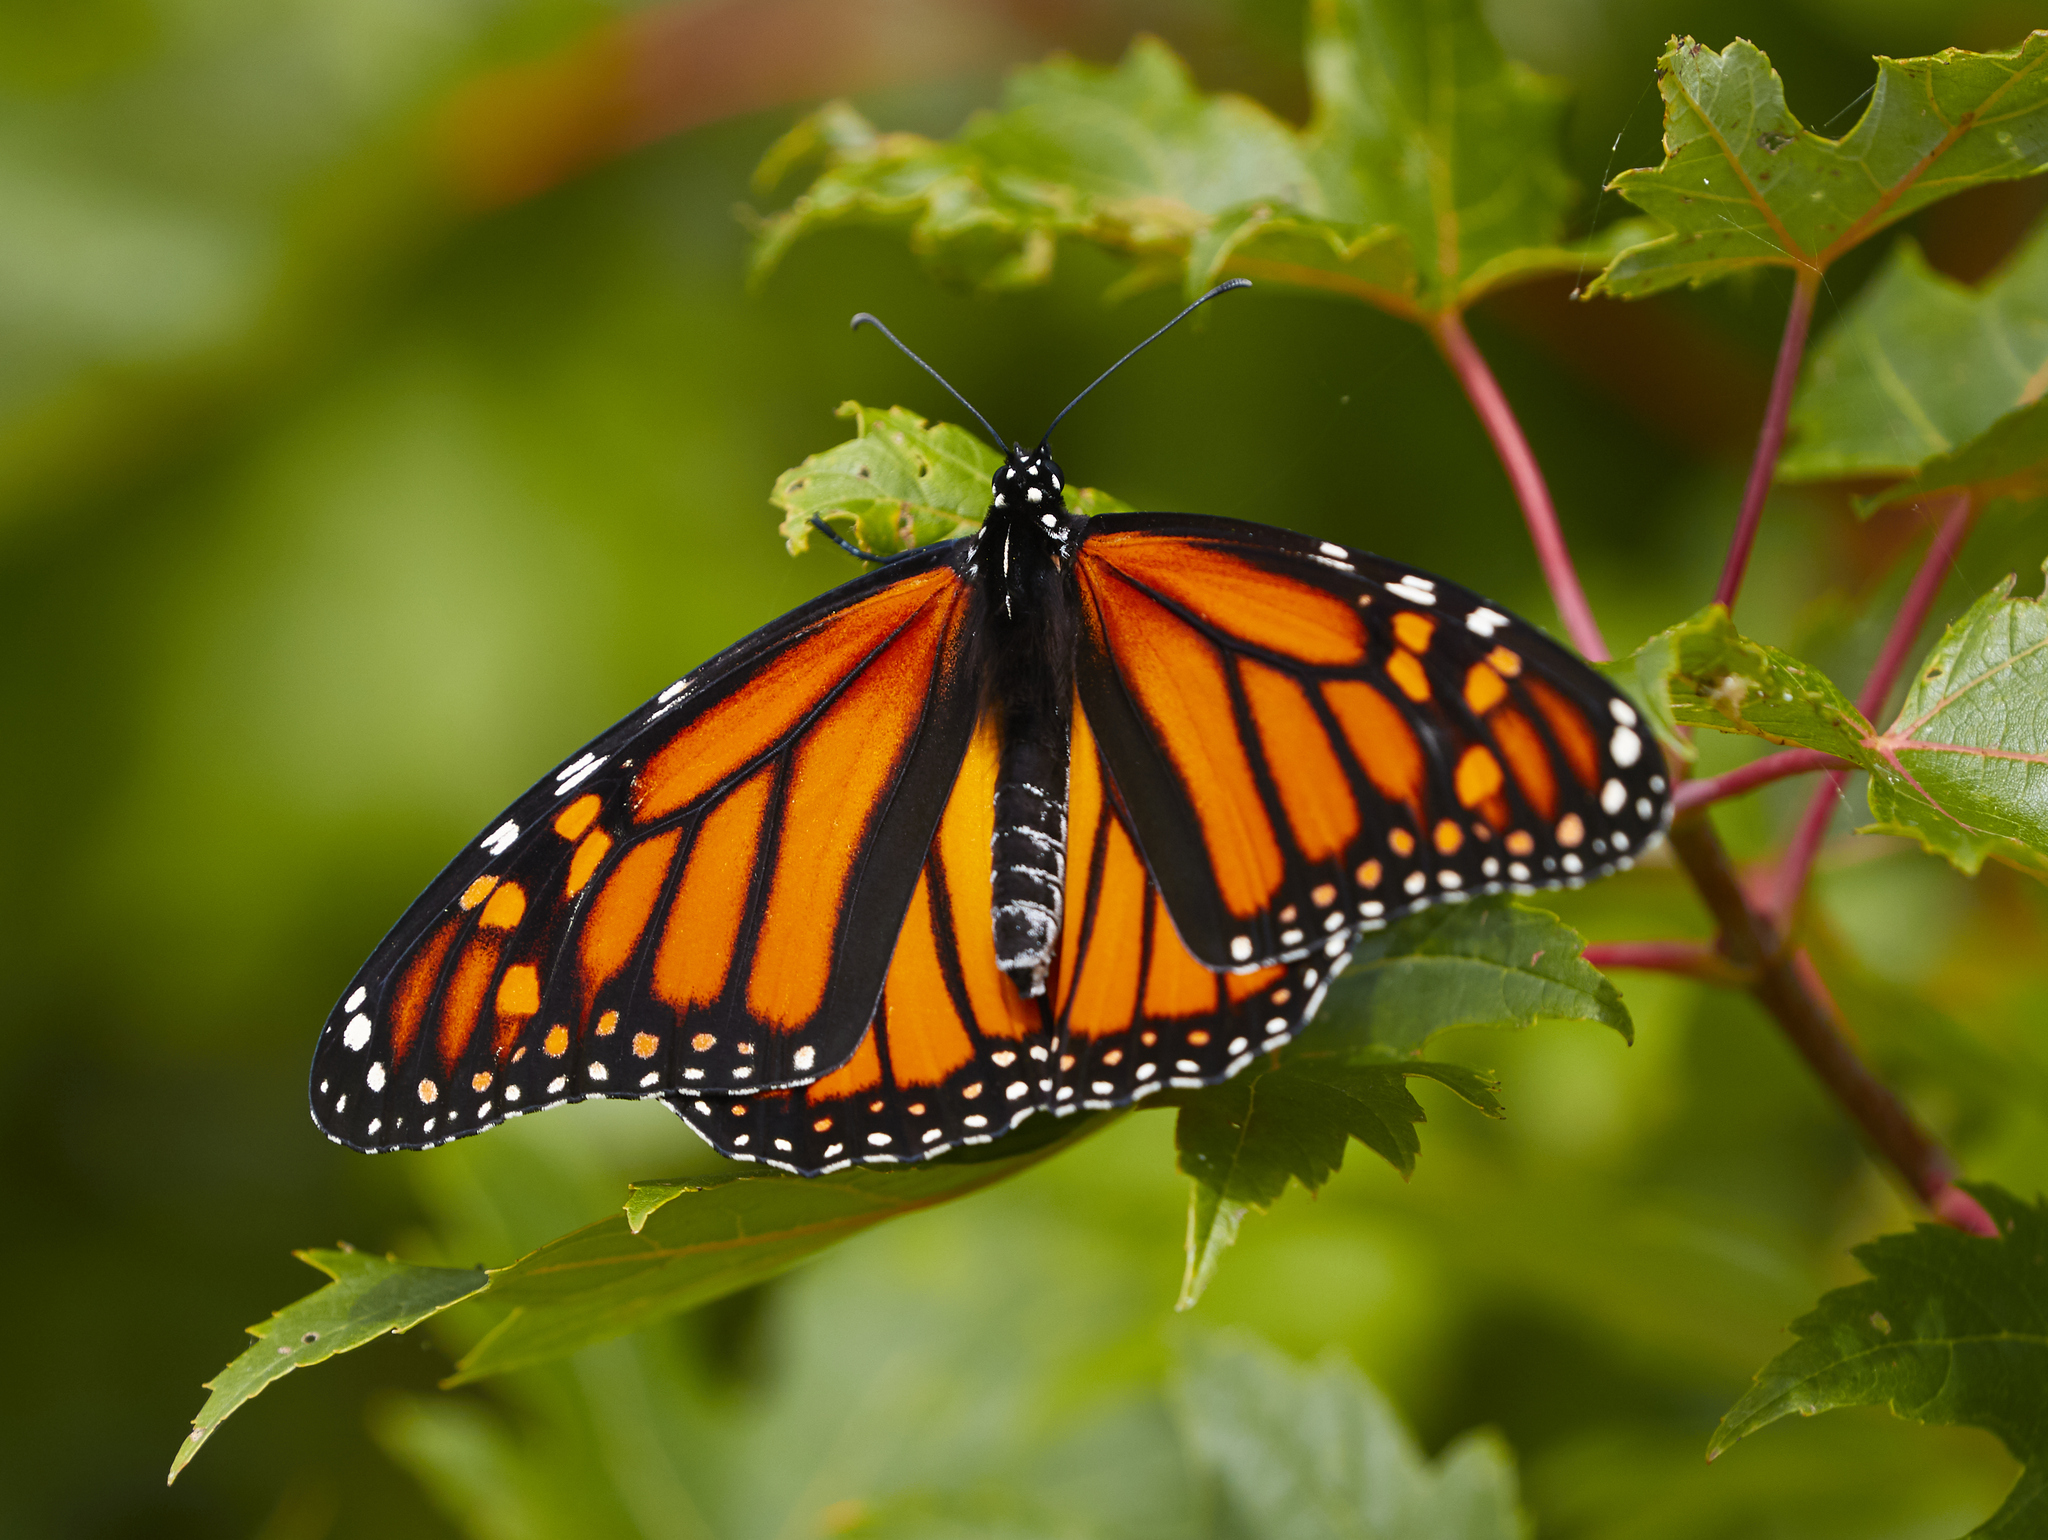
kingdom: Animalia
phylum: Arthropoda
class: Insecta
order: Lepidoptera
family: Nymphalidae
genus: Danaus
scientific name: Danaus plexippus
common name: Monarch
